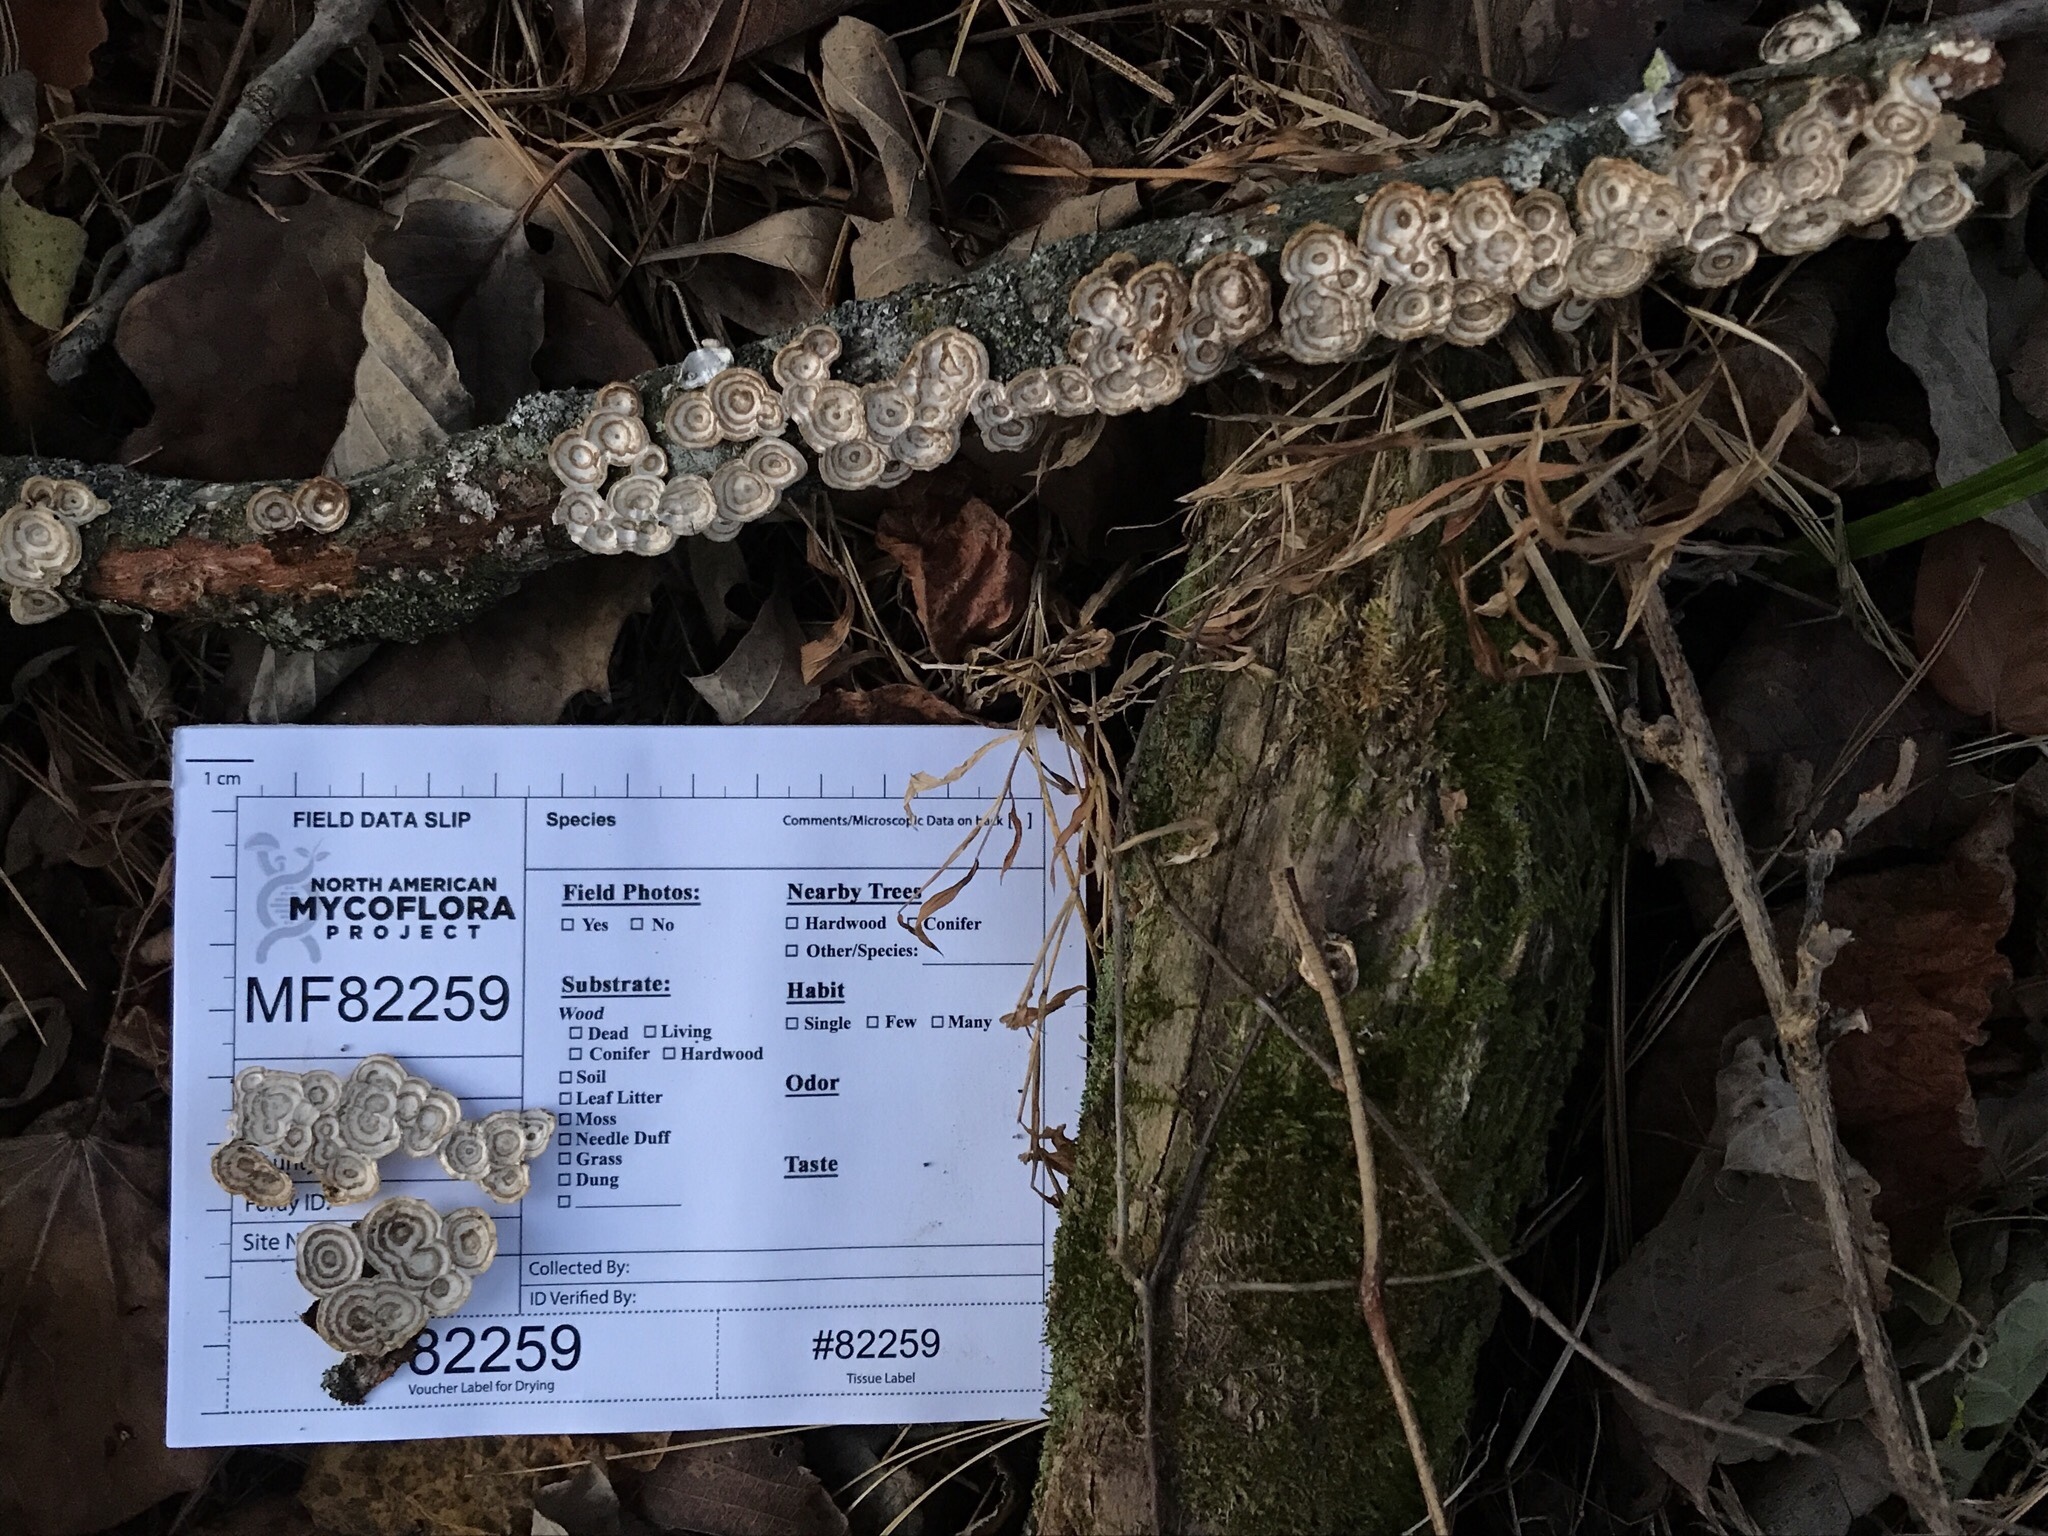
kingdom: Fungi
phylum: Basidiomycota
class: Agaricomycetes
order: Polyporales
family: Polyporaceae
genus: Poronidulus
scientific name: Poronidulus conchifer
